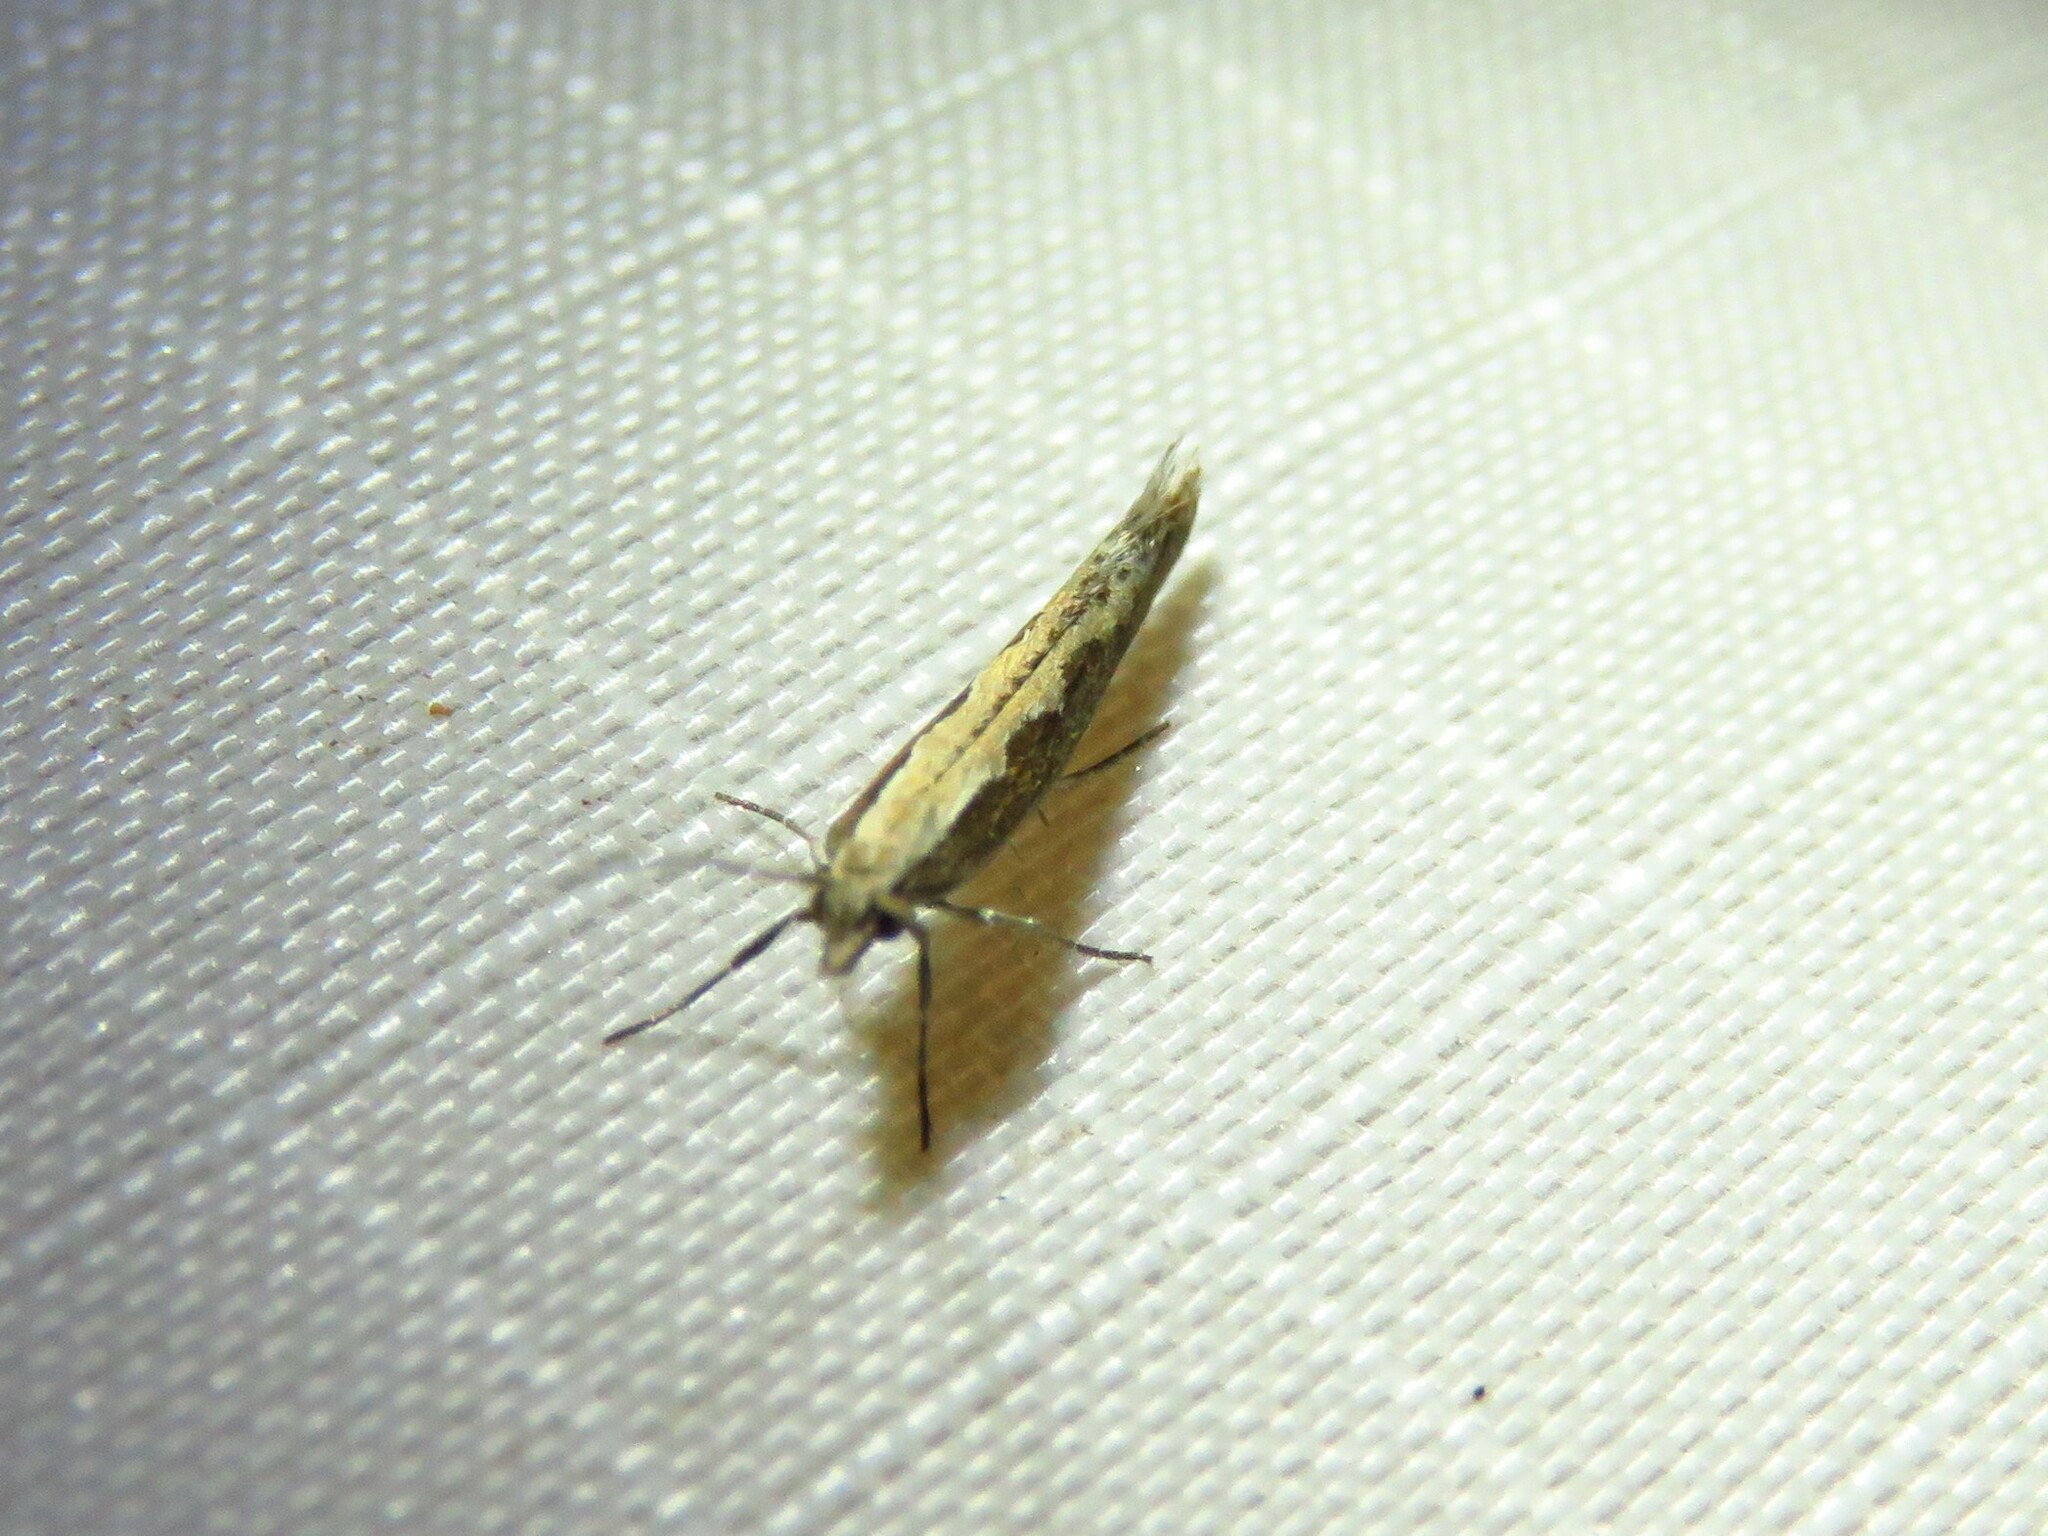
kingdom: Animalia
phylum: Arthropoda
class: Insecta
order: Lepidoptera
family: Plutellidae
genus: Plutella
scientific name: Plutella xylostella
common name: Diamond-back moth
